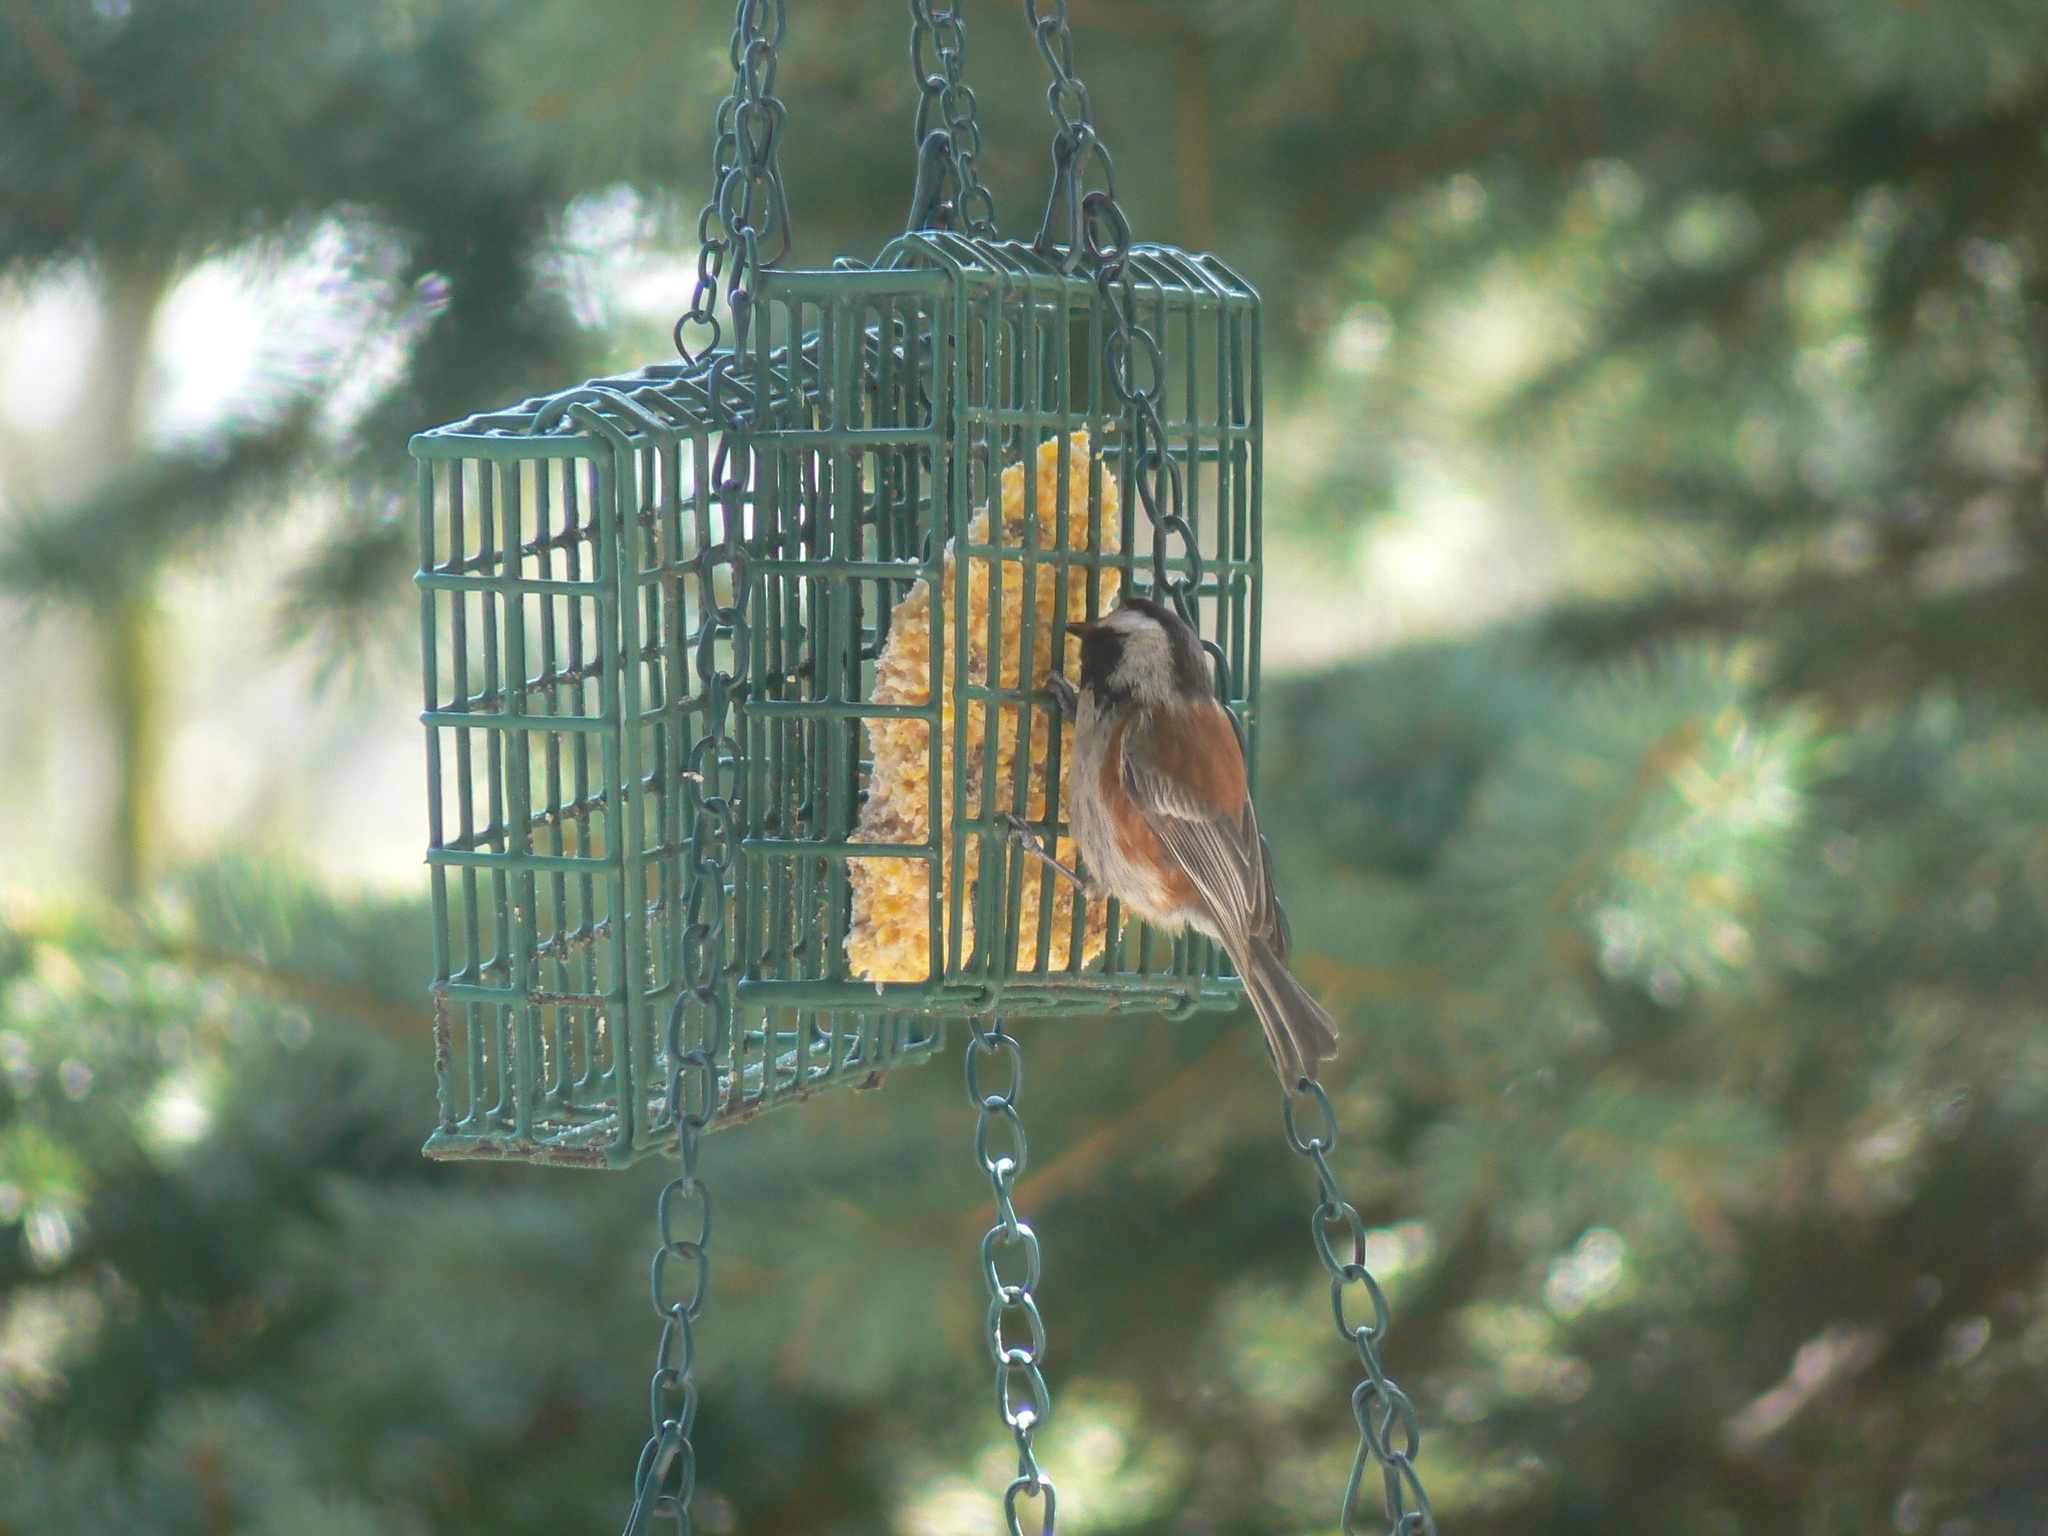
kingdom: Animalia
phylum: Chordata
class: Aves
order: Passeriformes
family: Paridae
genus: Poecile
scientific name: Poecile rufescens
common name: Chestnut-backed chickadee
